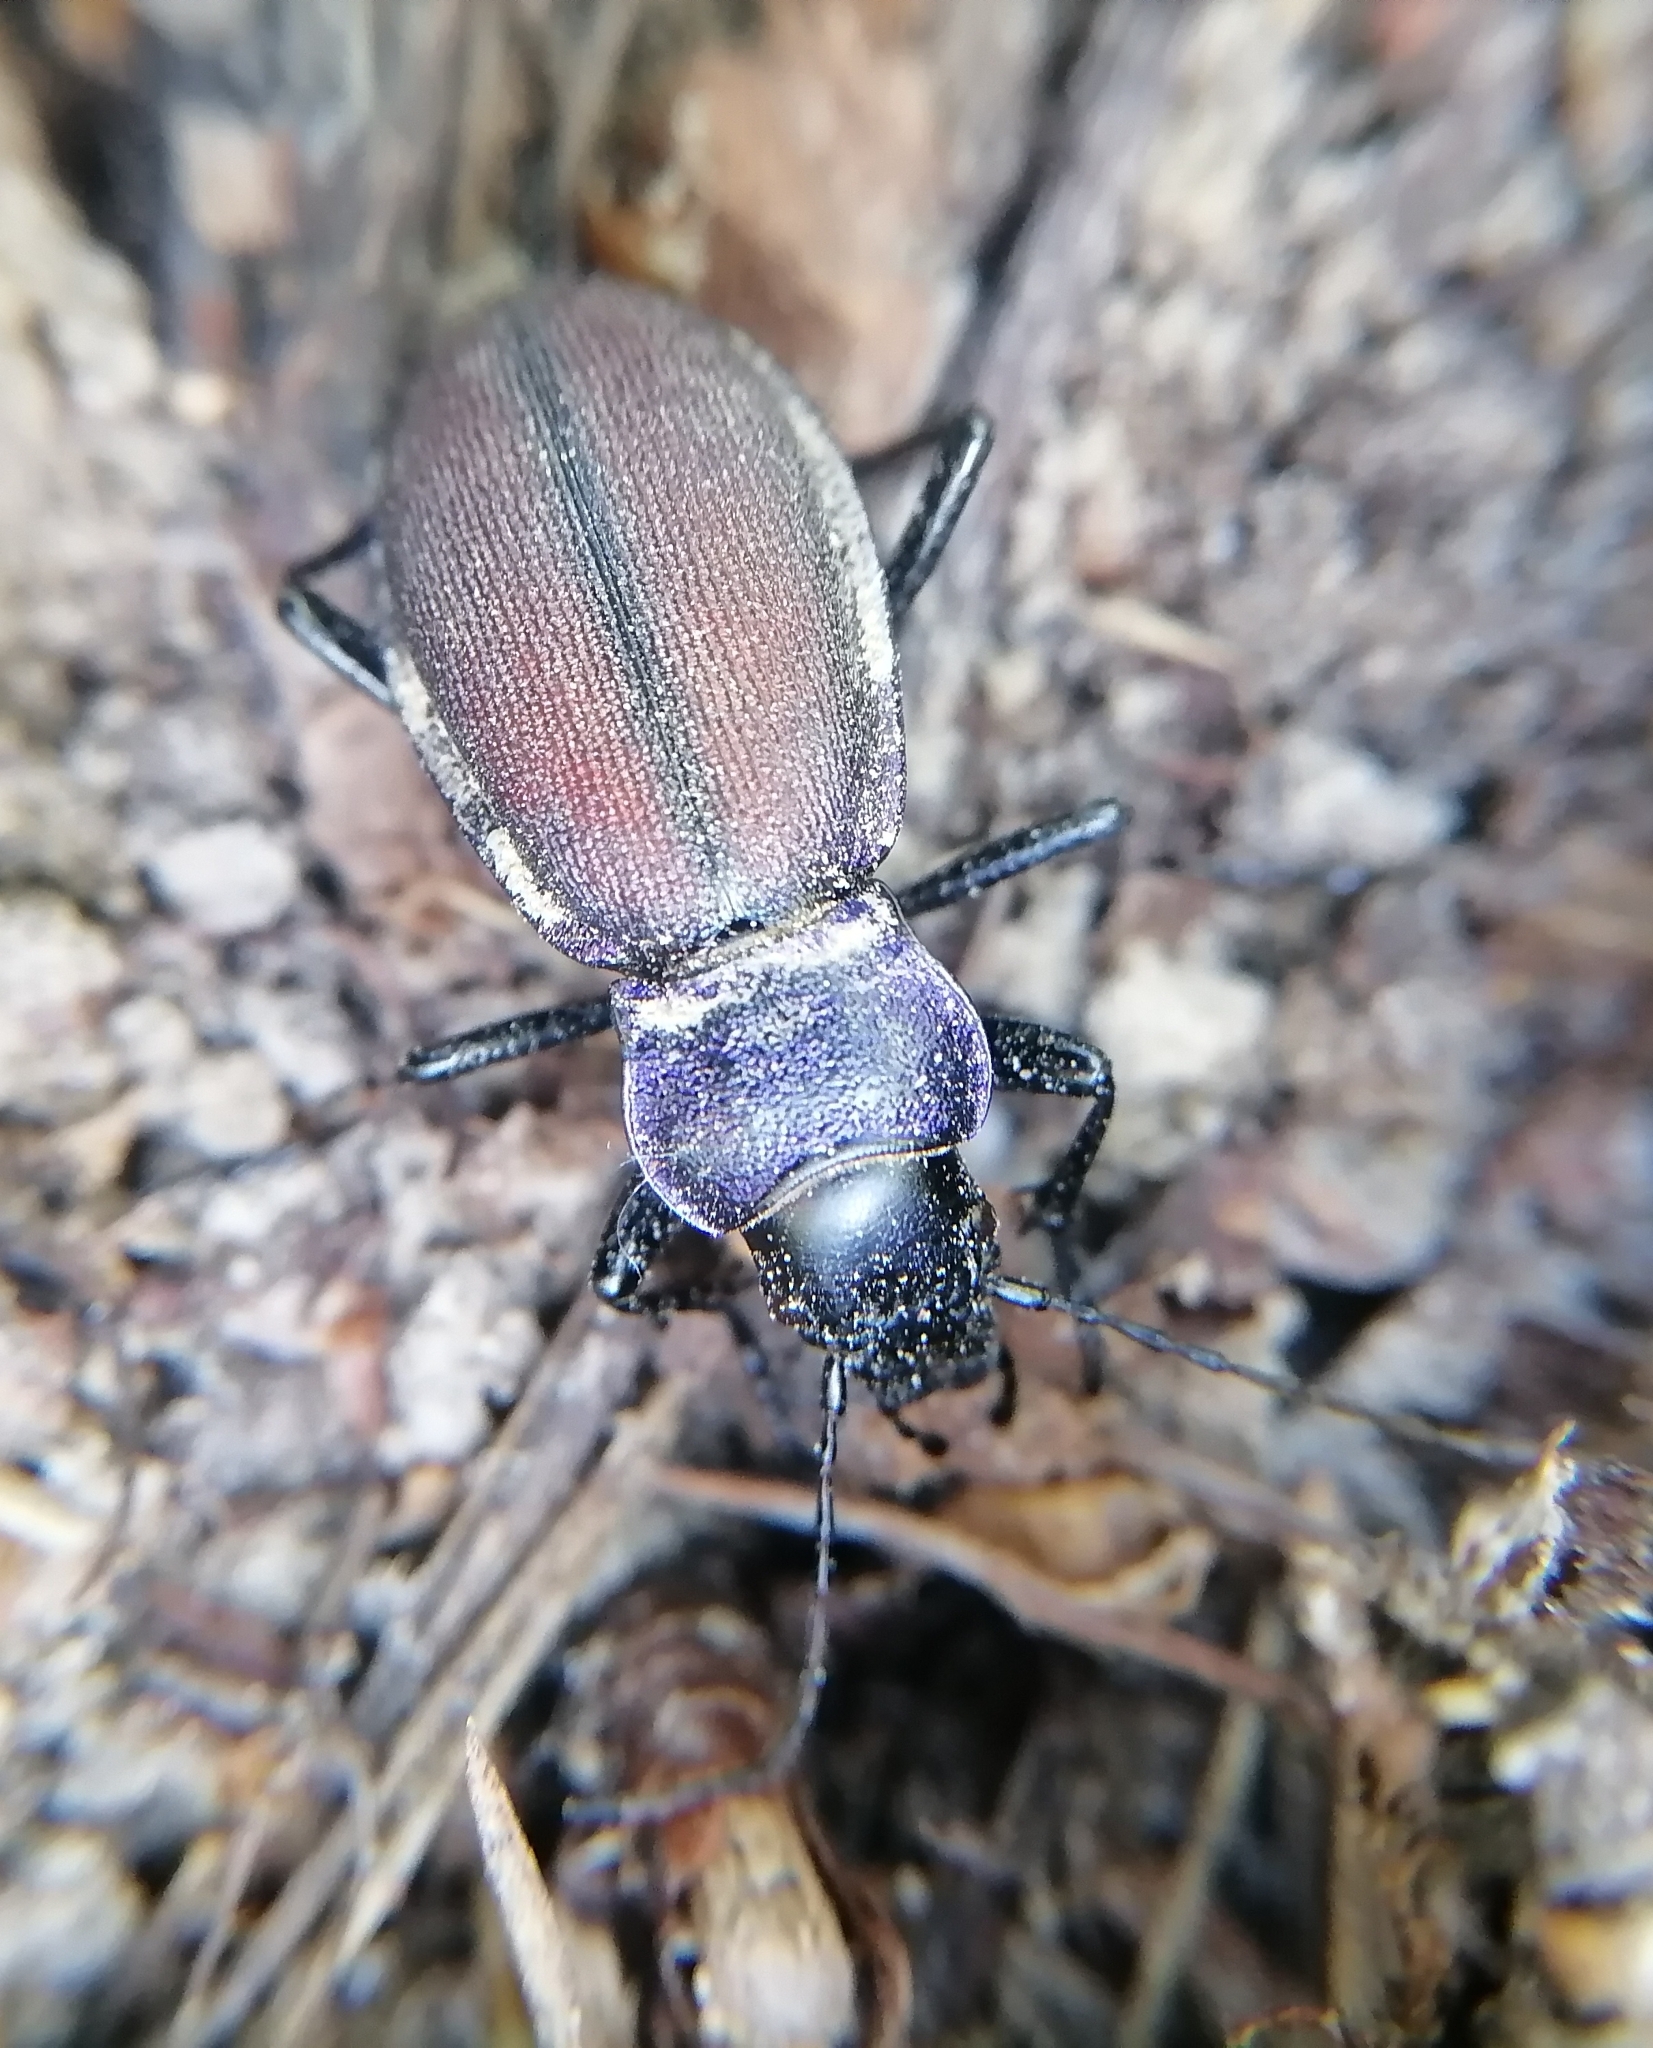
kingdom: Animalia
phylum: Arthropoda
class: Insecta
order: Coleoptera
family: Carabidae
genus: Carabus
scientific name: Carabus schoenherri
